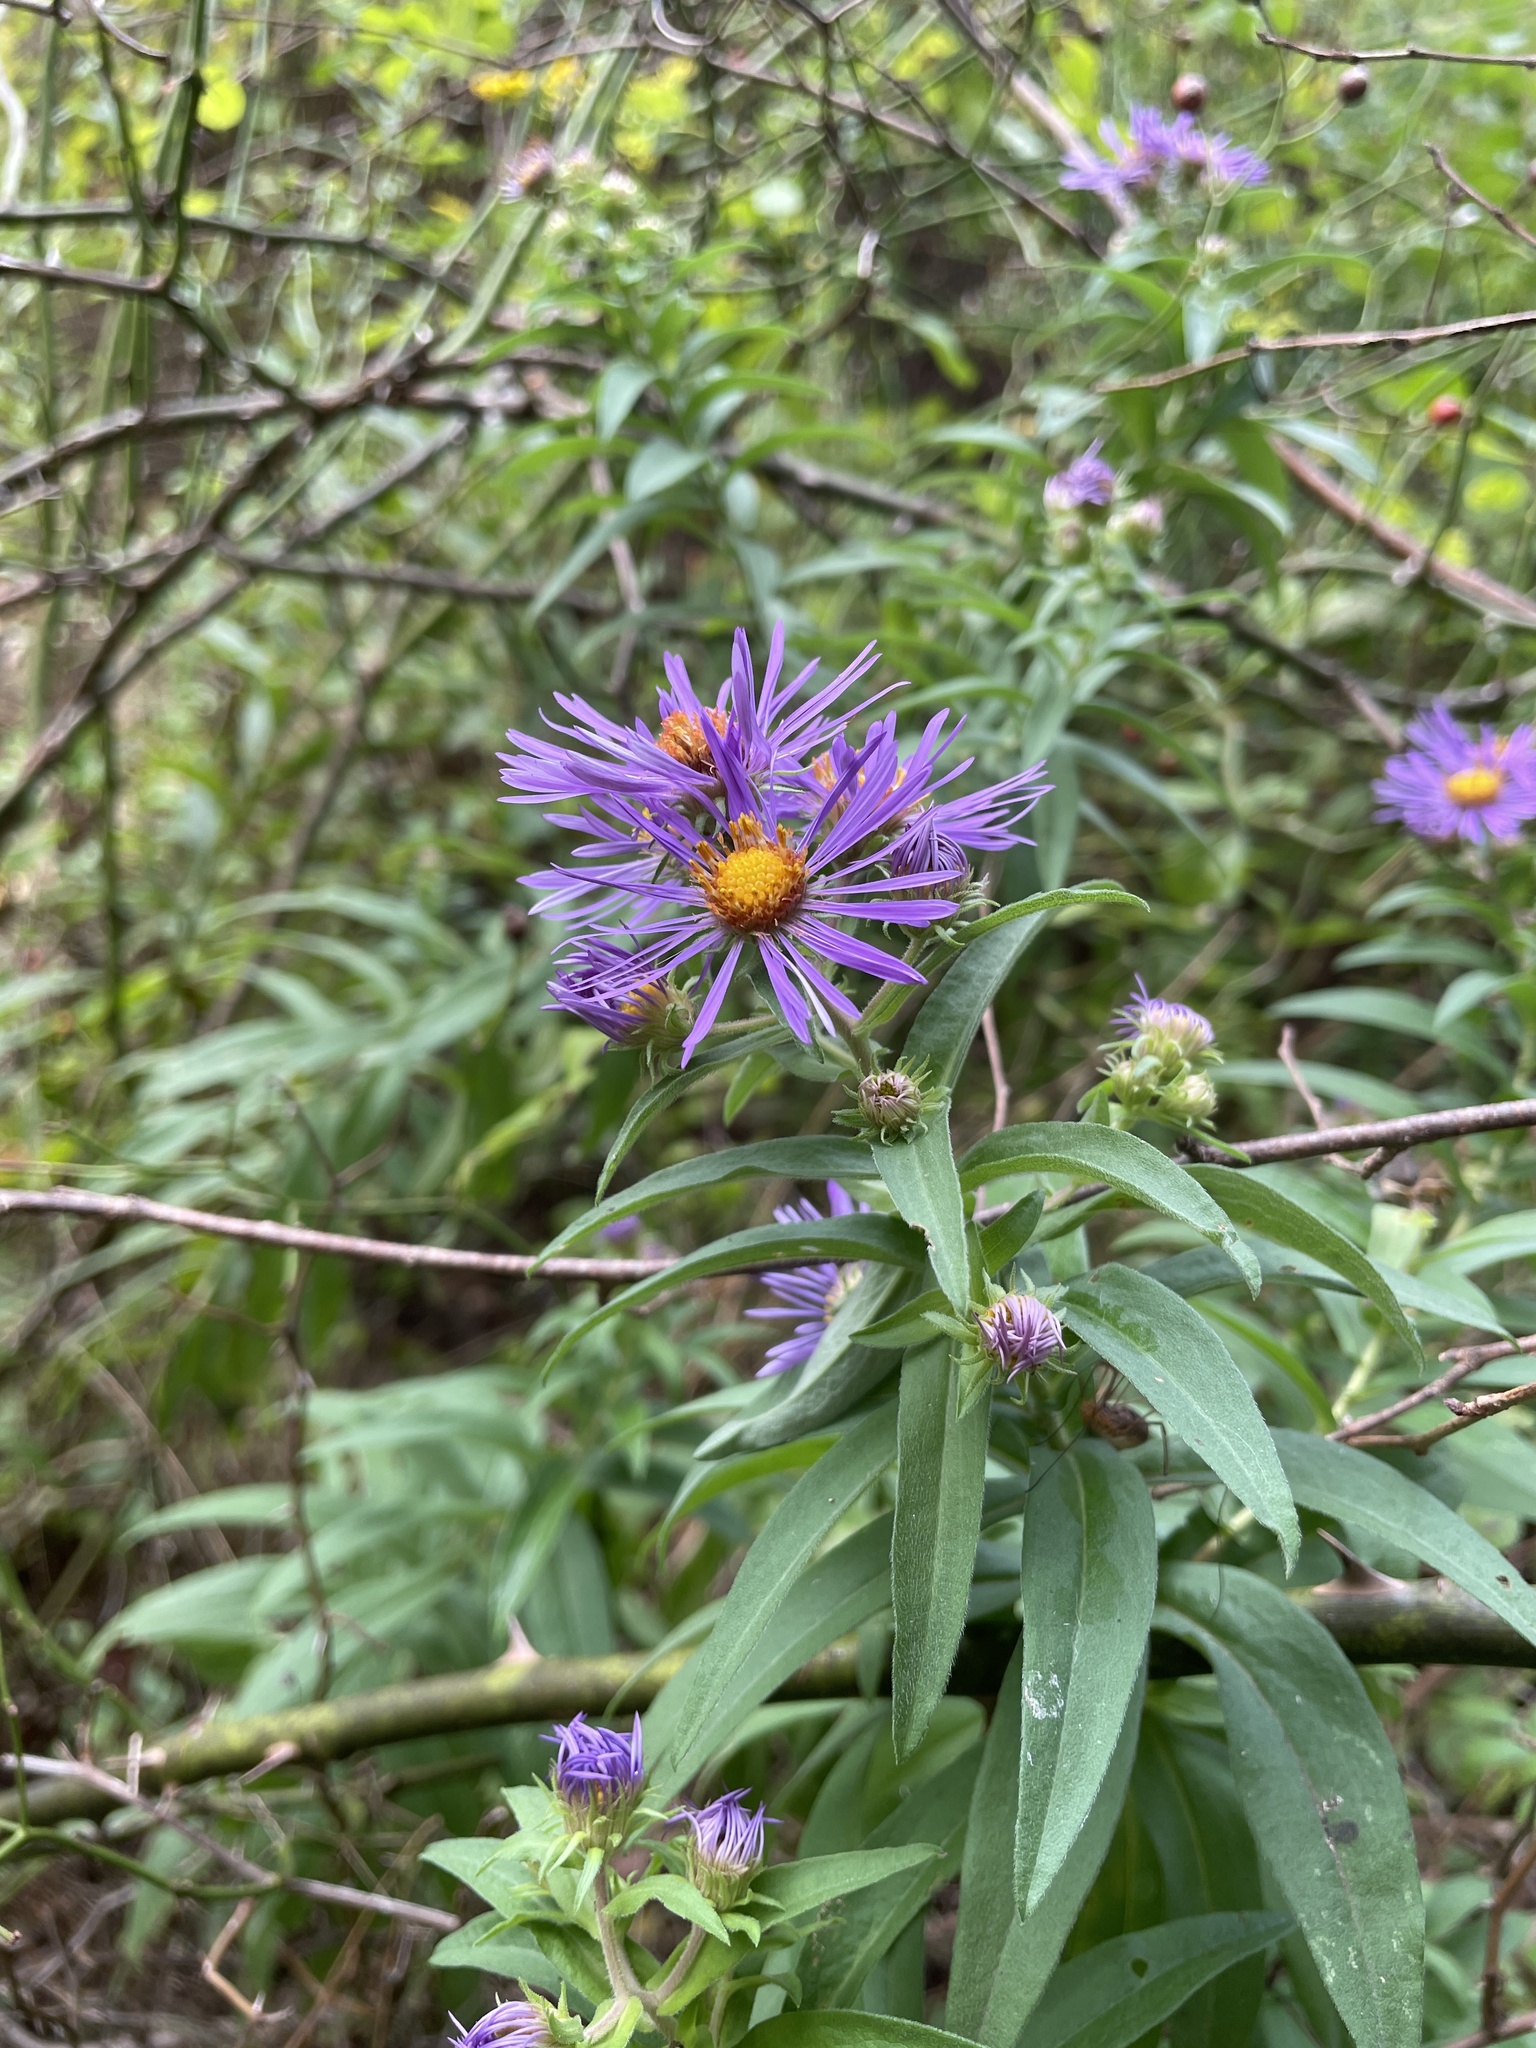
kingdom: Plantae
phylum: Tracheophyta
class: Magnoliopsida
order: Asterales
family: Asteraceae
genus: Symphyotrichum
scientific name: Symphyotrichum novae-angliae
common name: Michaelmas daisy
